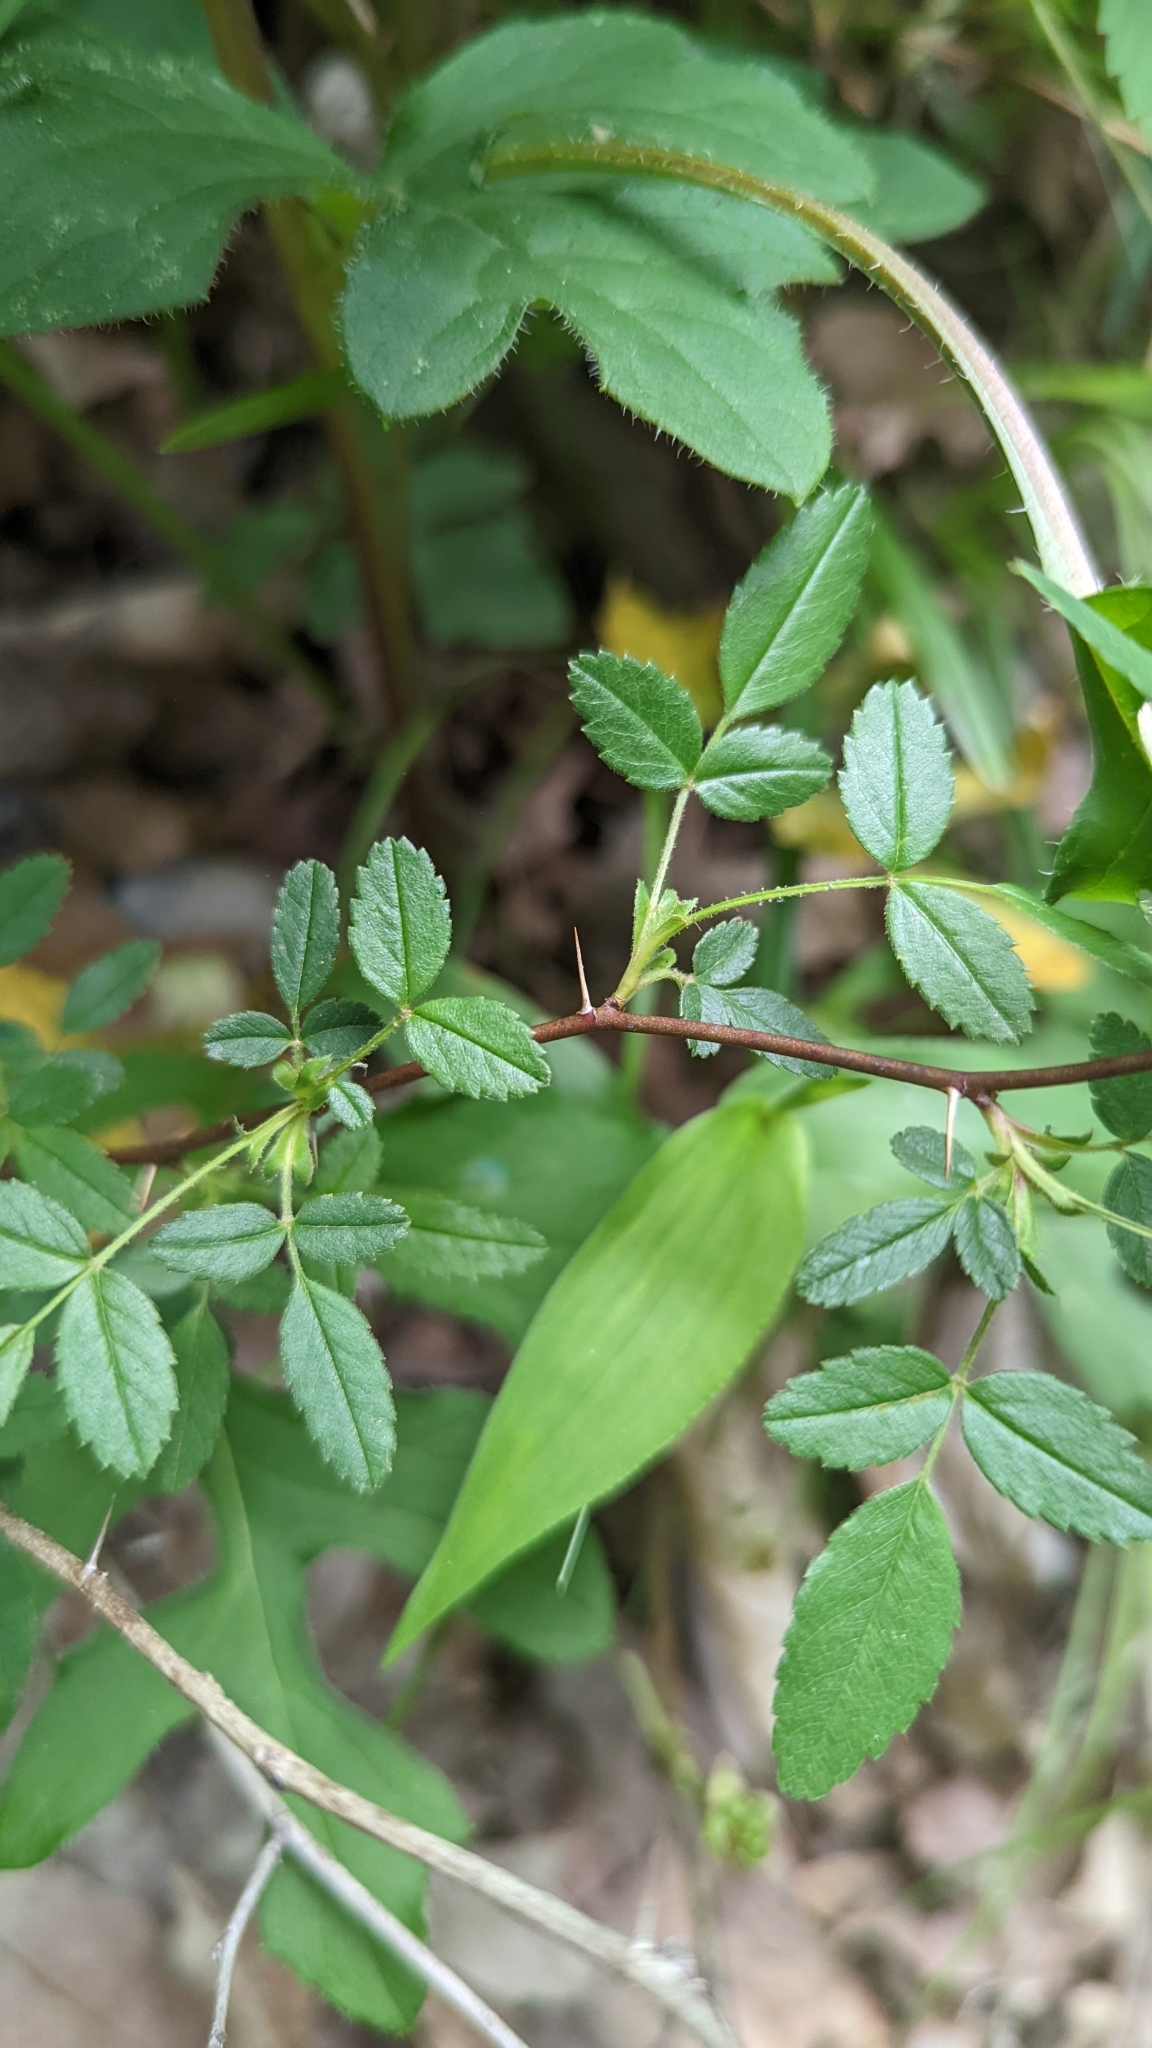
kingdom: Plantae
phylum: Tracheophyta
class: Magnoliopsida
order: Rosales
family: Rosaceae
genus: Rosa
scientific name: Rosa carolina
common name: Pasture rose
